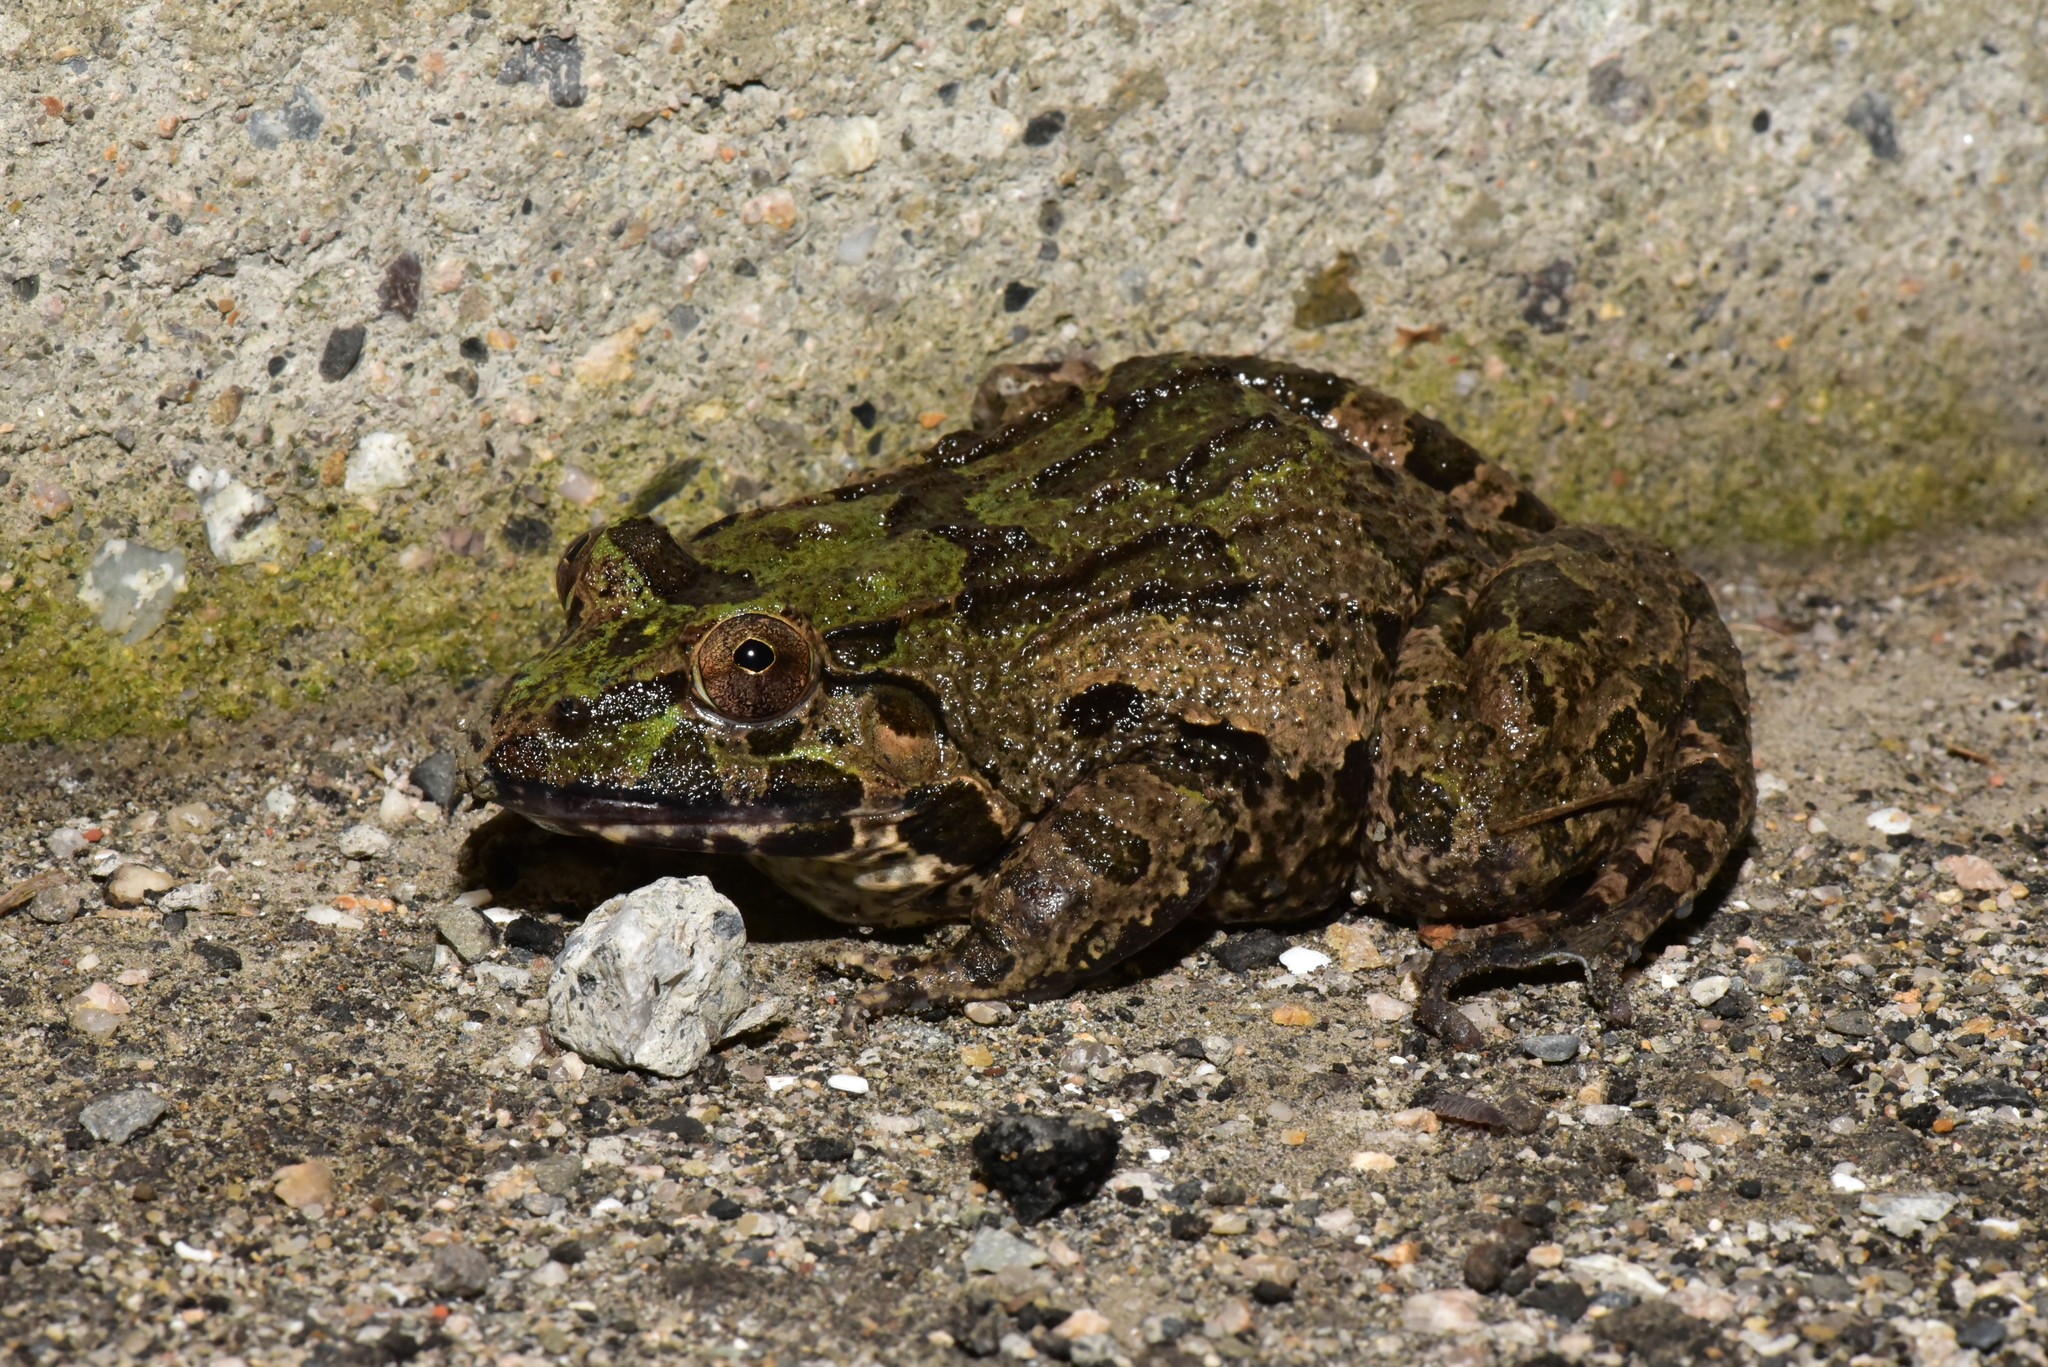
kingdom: Animalia
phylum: Chordata
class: Amphibia
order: Anura
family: Dicroglossidae
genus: Fejervarya
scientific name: Fejervarya cancrivora
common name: Crab-eating frog/mangrove frog/rice field frog/asian brackish frog
